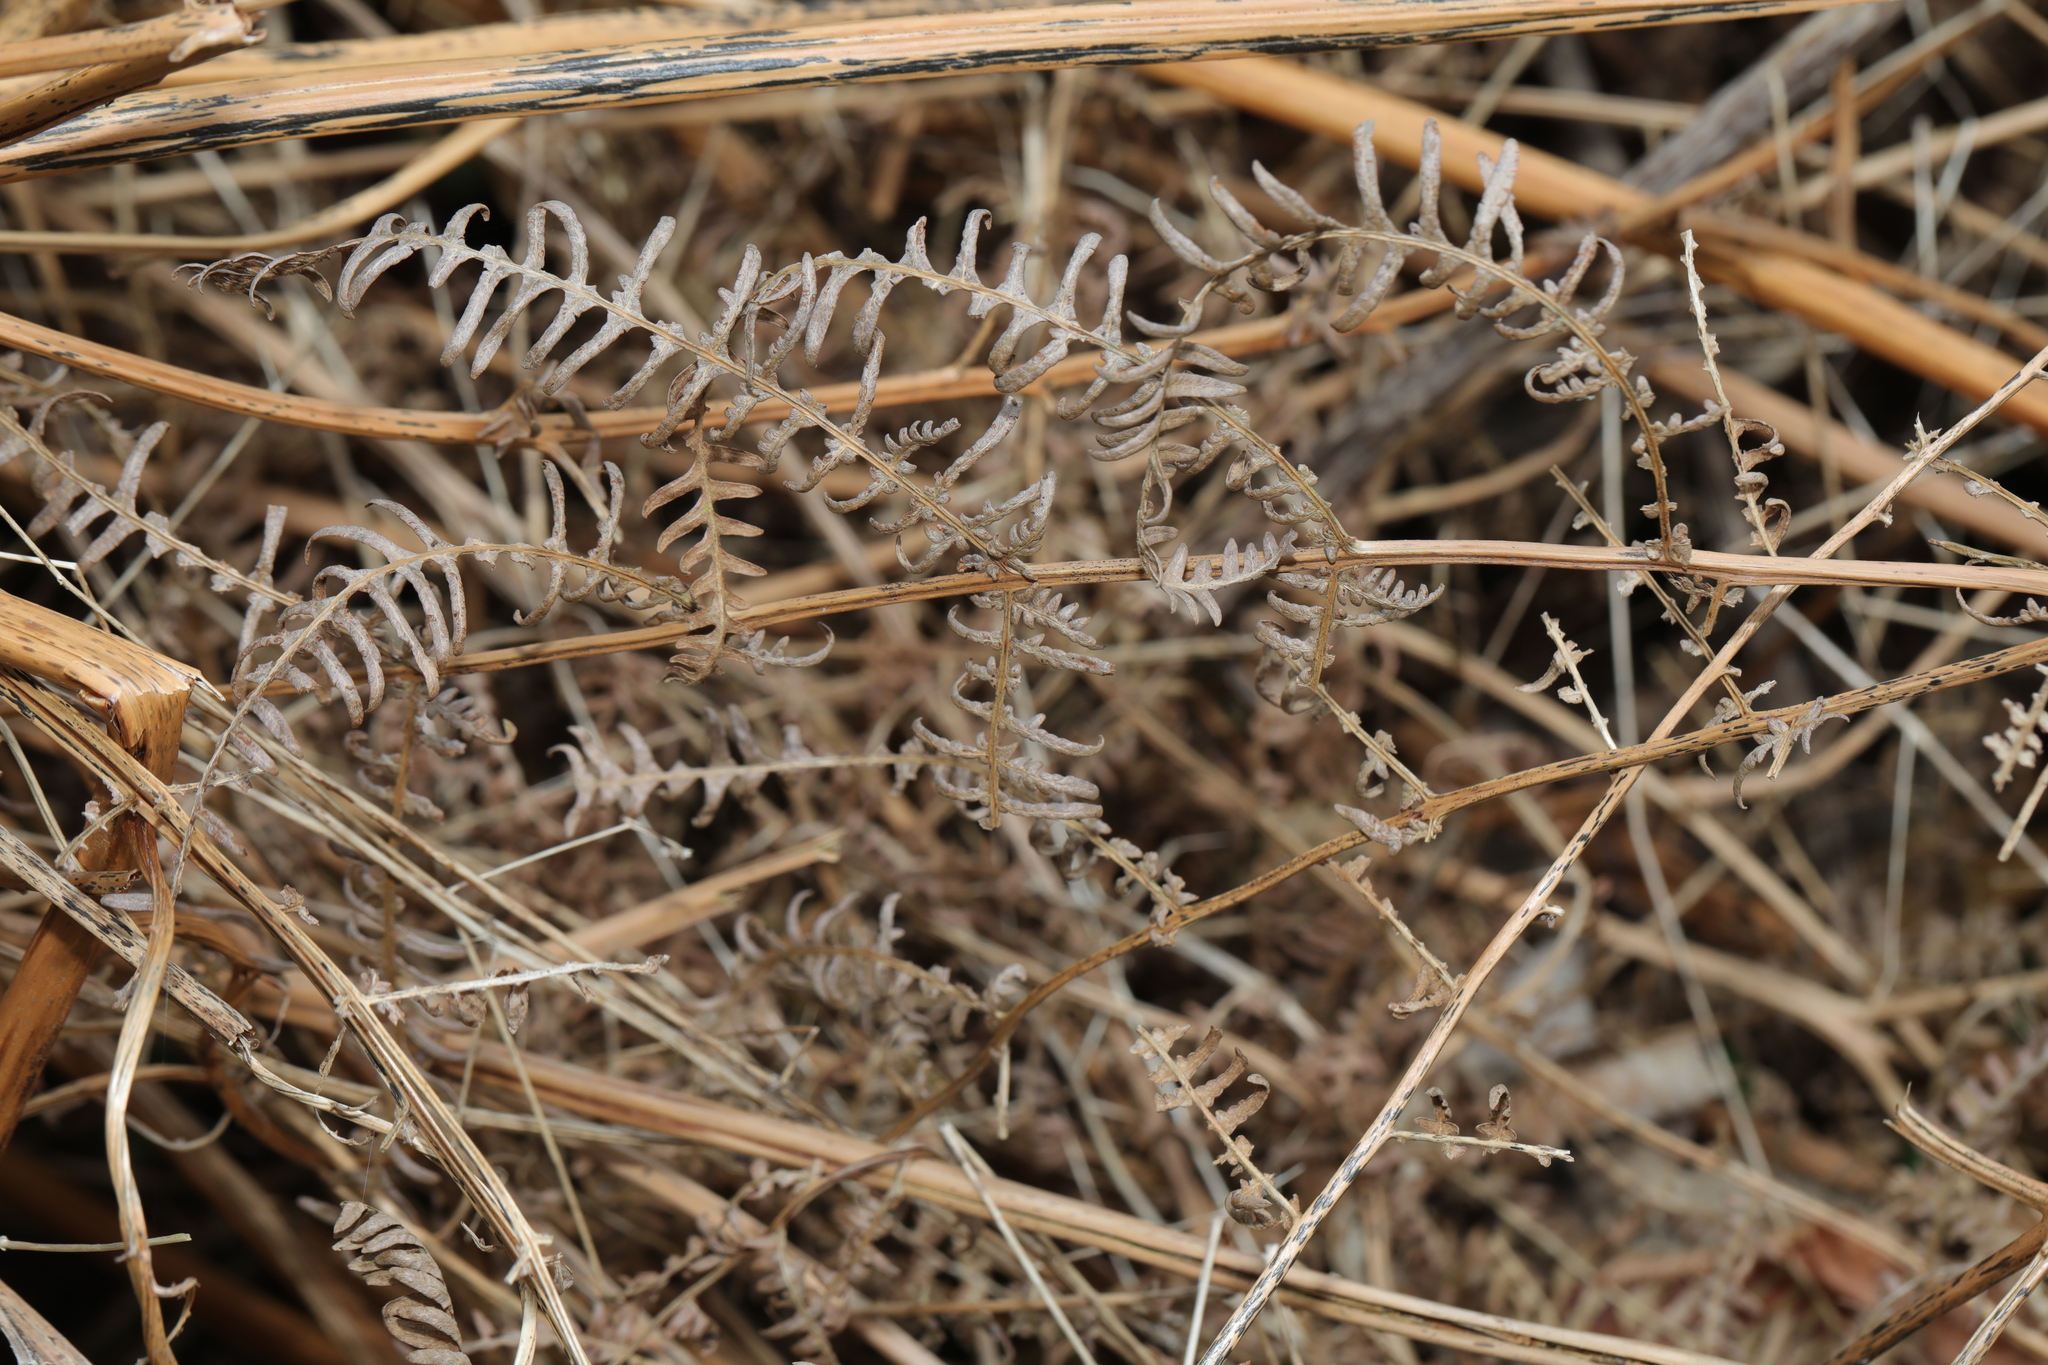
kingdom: Plantae
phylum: Tracheophyta
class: Polypodiopsida
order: Polypodiales
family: Dennstaedtiaceae
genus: Pteridium
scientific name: Pteridium aquilinum
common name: Bracken
